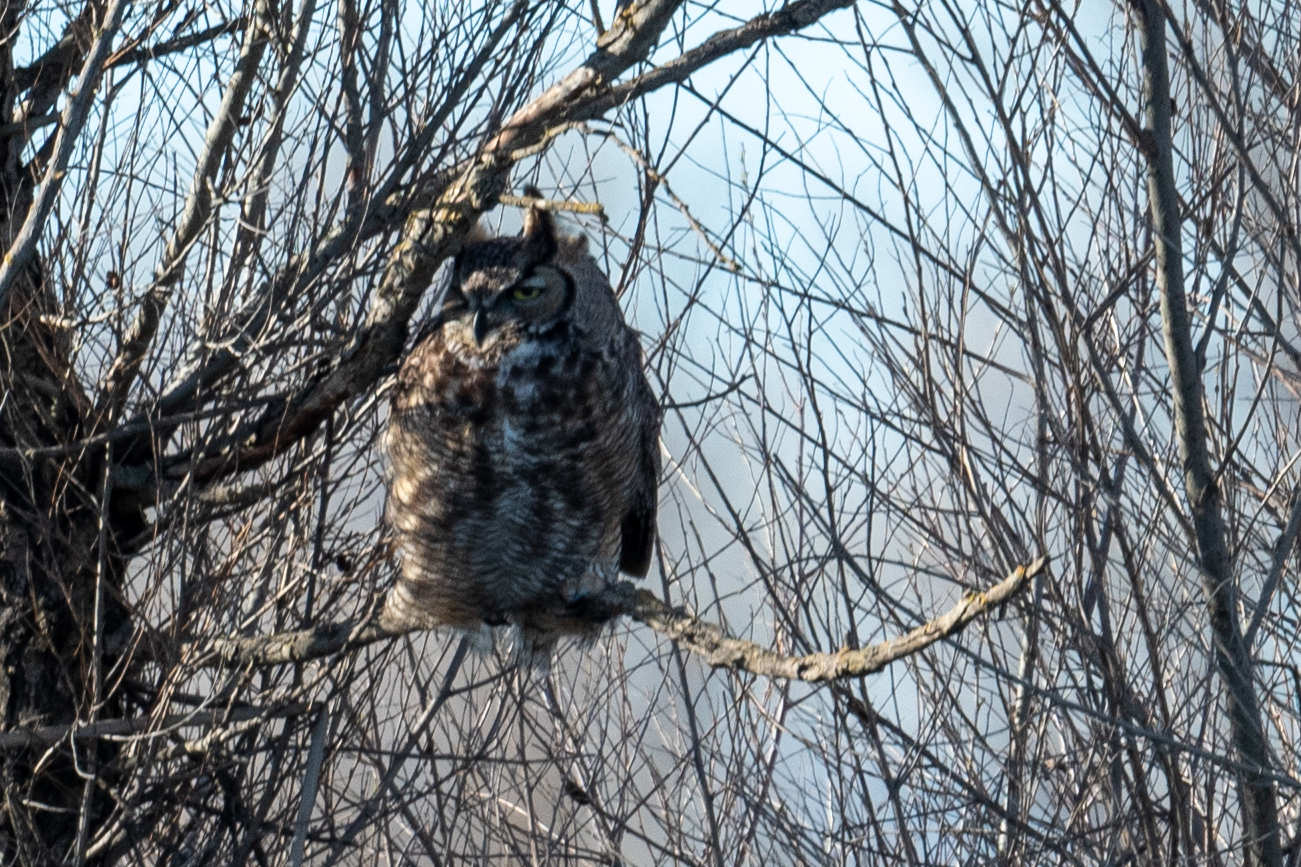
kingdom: Animalia
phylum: Chordata
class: Aves
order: Strigiformes
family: Strigidae
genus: Bubo
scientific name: Bubo virginianus
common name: Great horned owl
